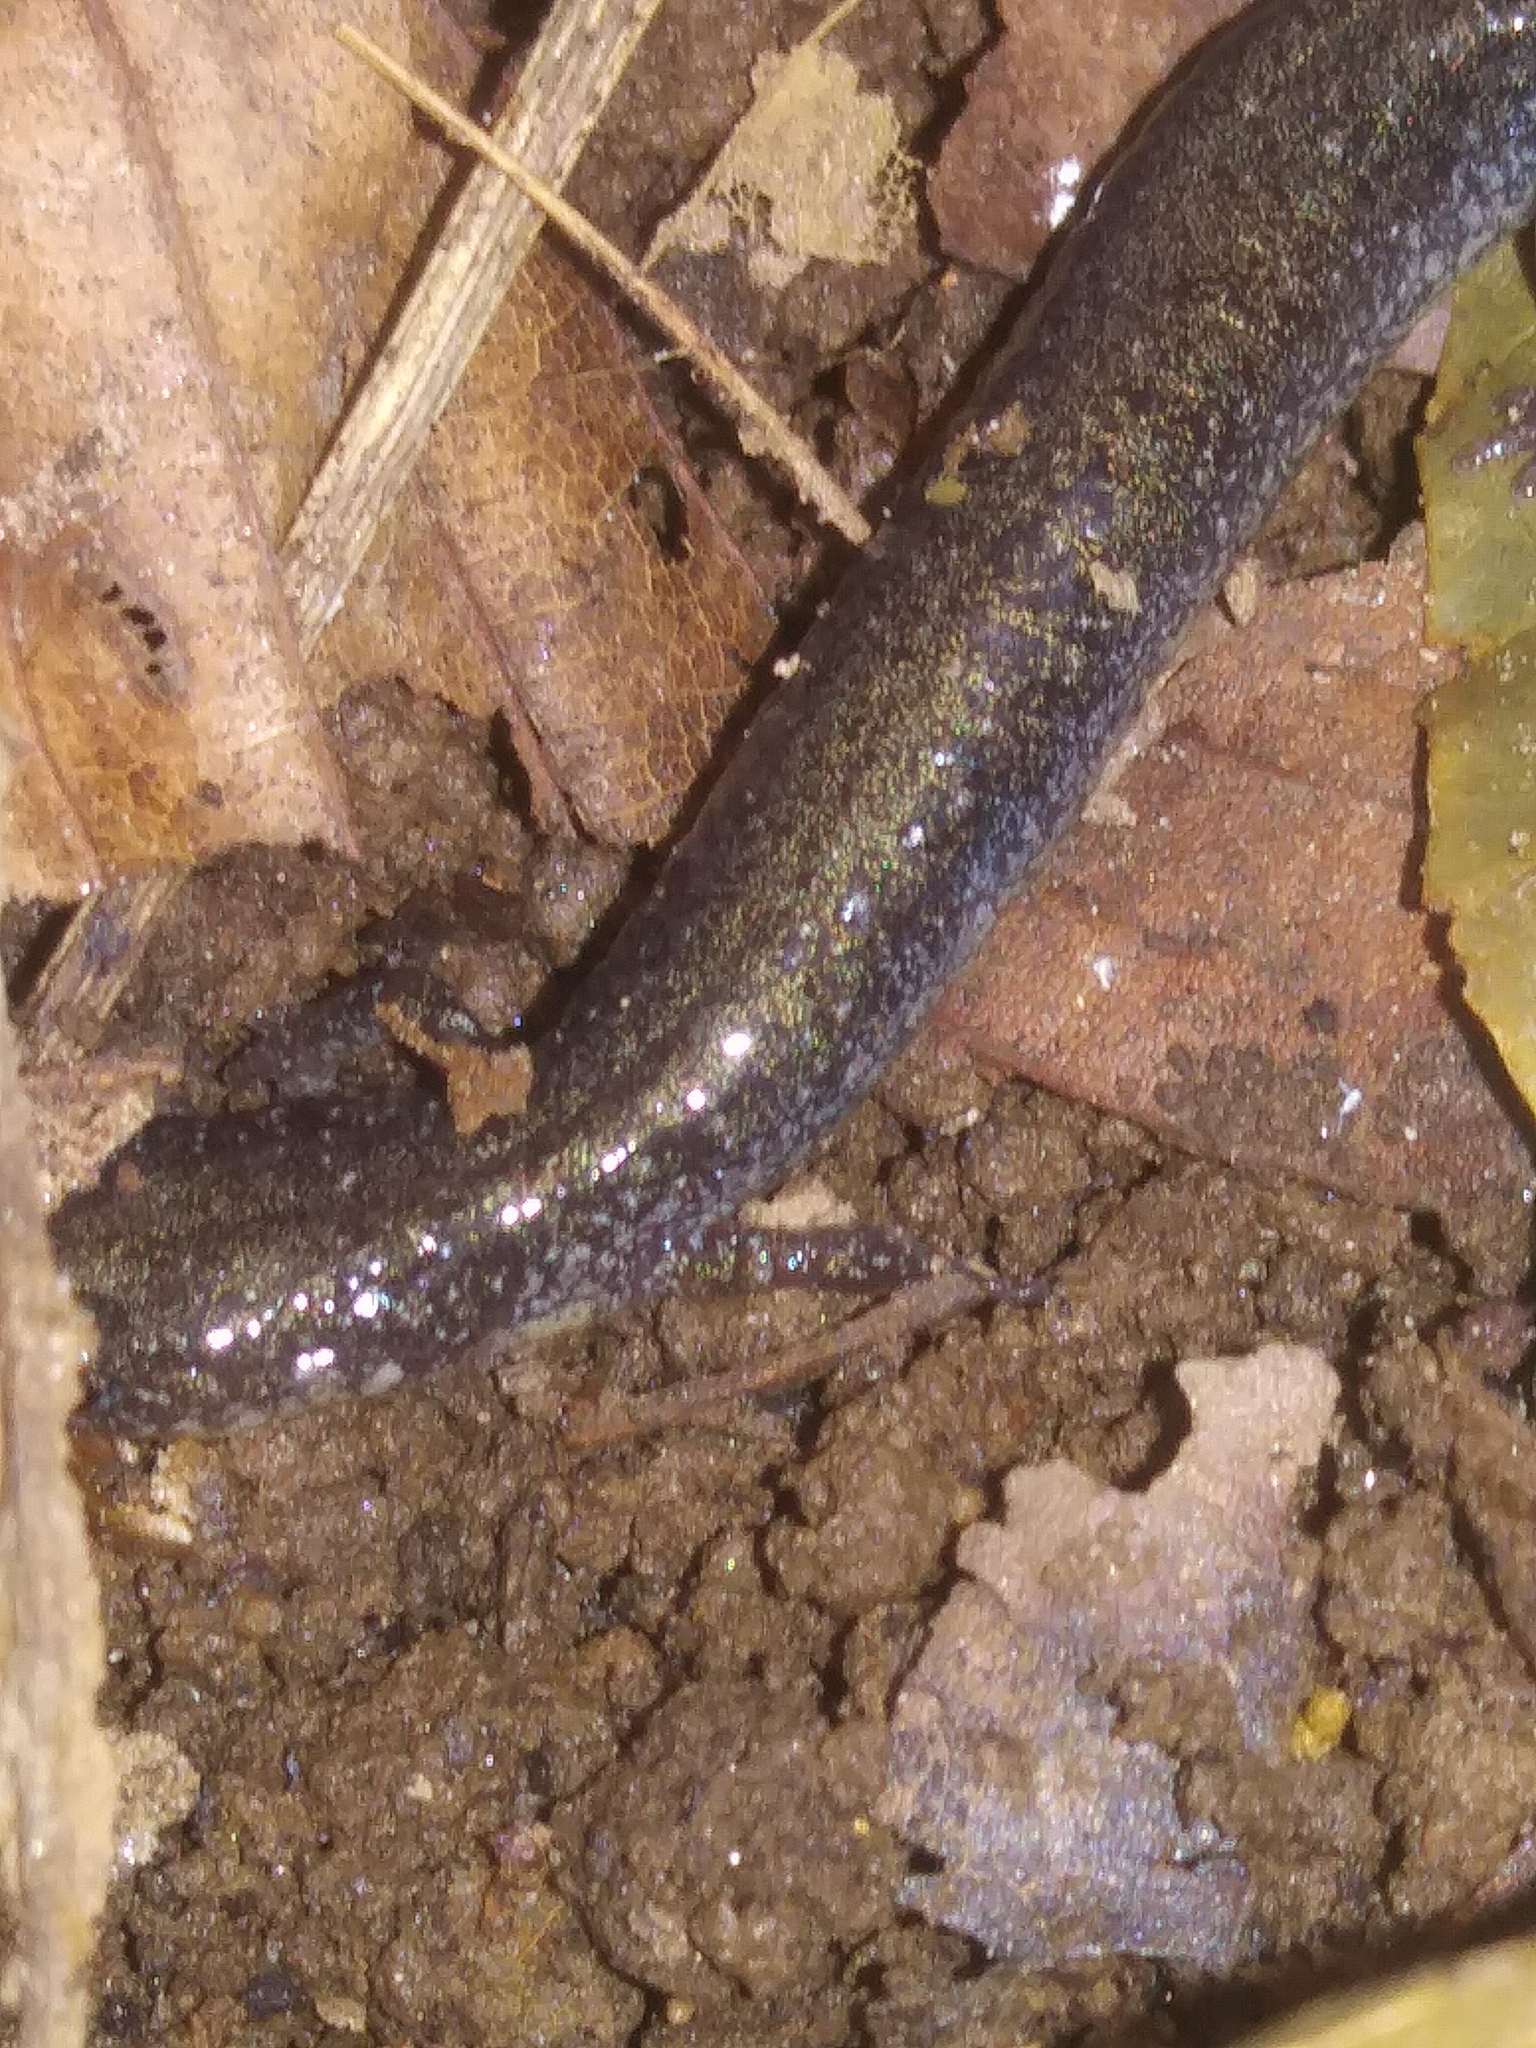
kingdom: Animalia
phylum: Chordata
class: Amphibia
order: Caudata
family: Plethodontidae
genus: Plethodon
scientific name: Plethodon cinereus
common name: Redback salamander
